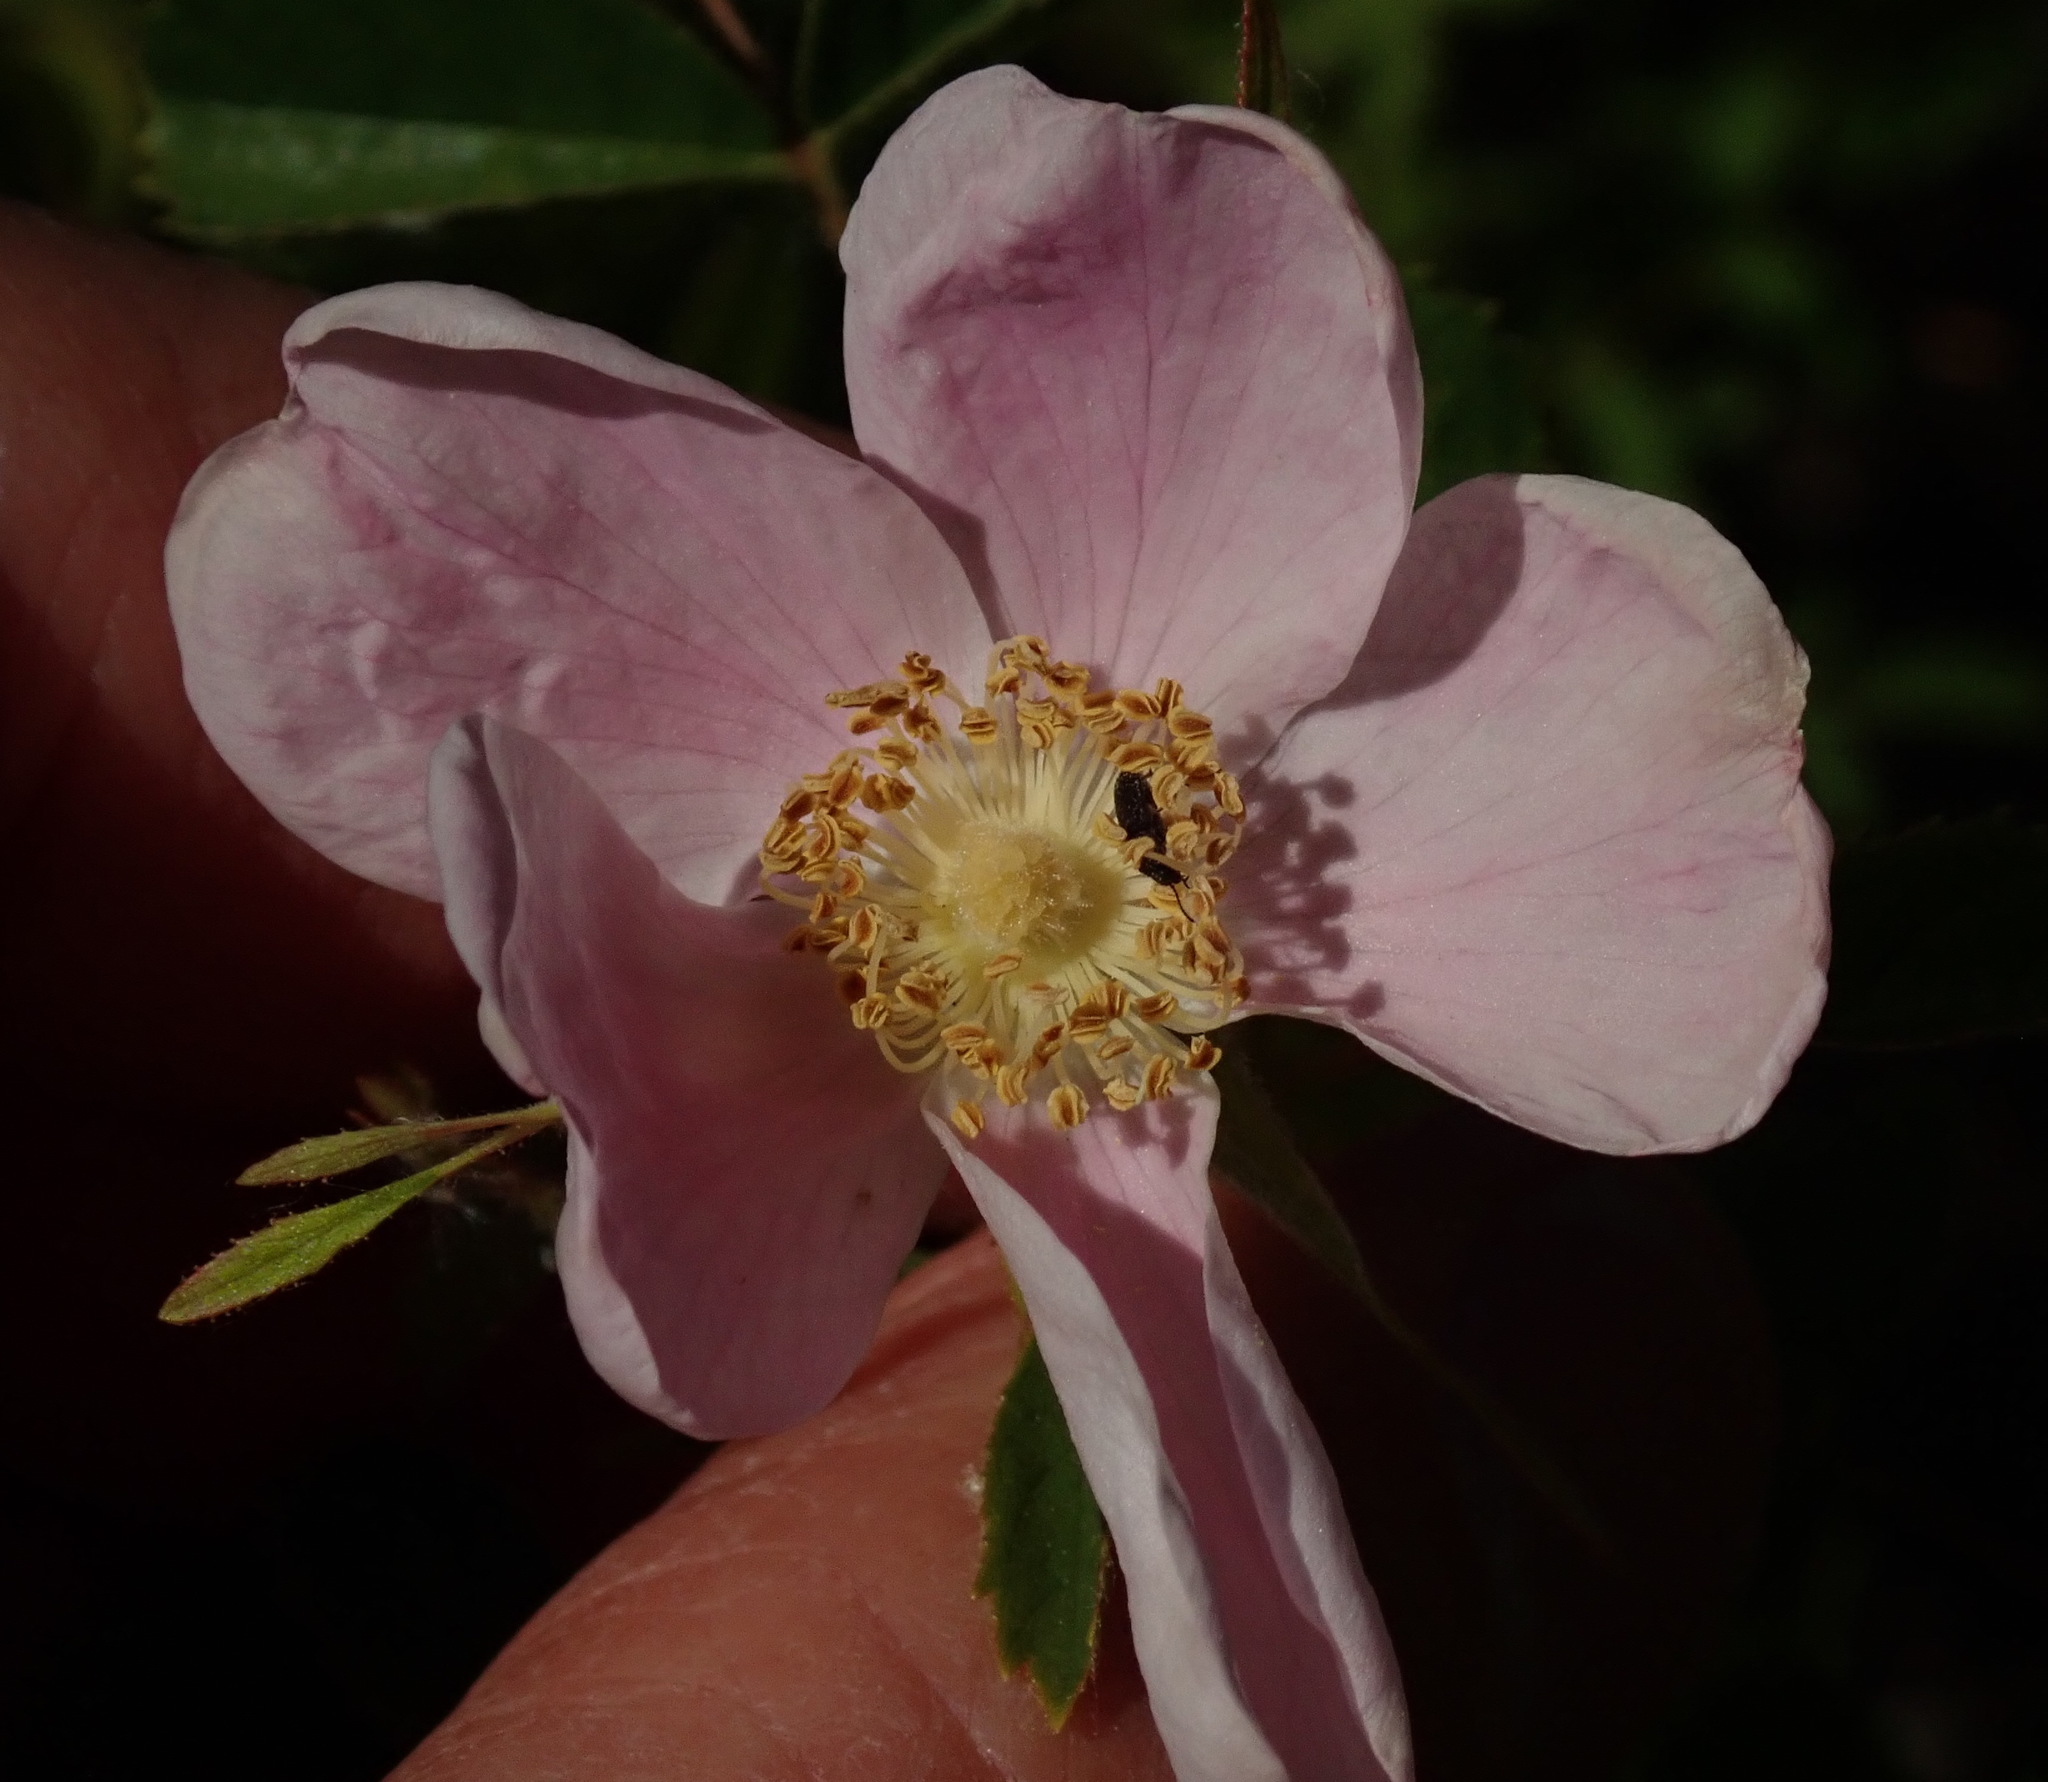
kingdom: Plantae
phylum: Tracheophyta
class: Magnoliopsida
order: Rosales
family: Rosaceae
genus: Rosa
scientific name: Rosa californica
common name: California rose
